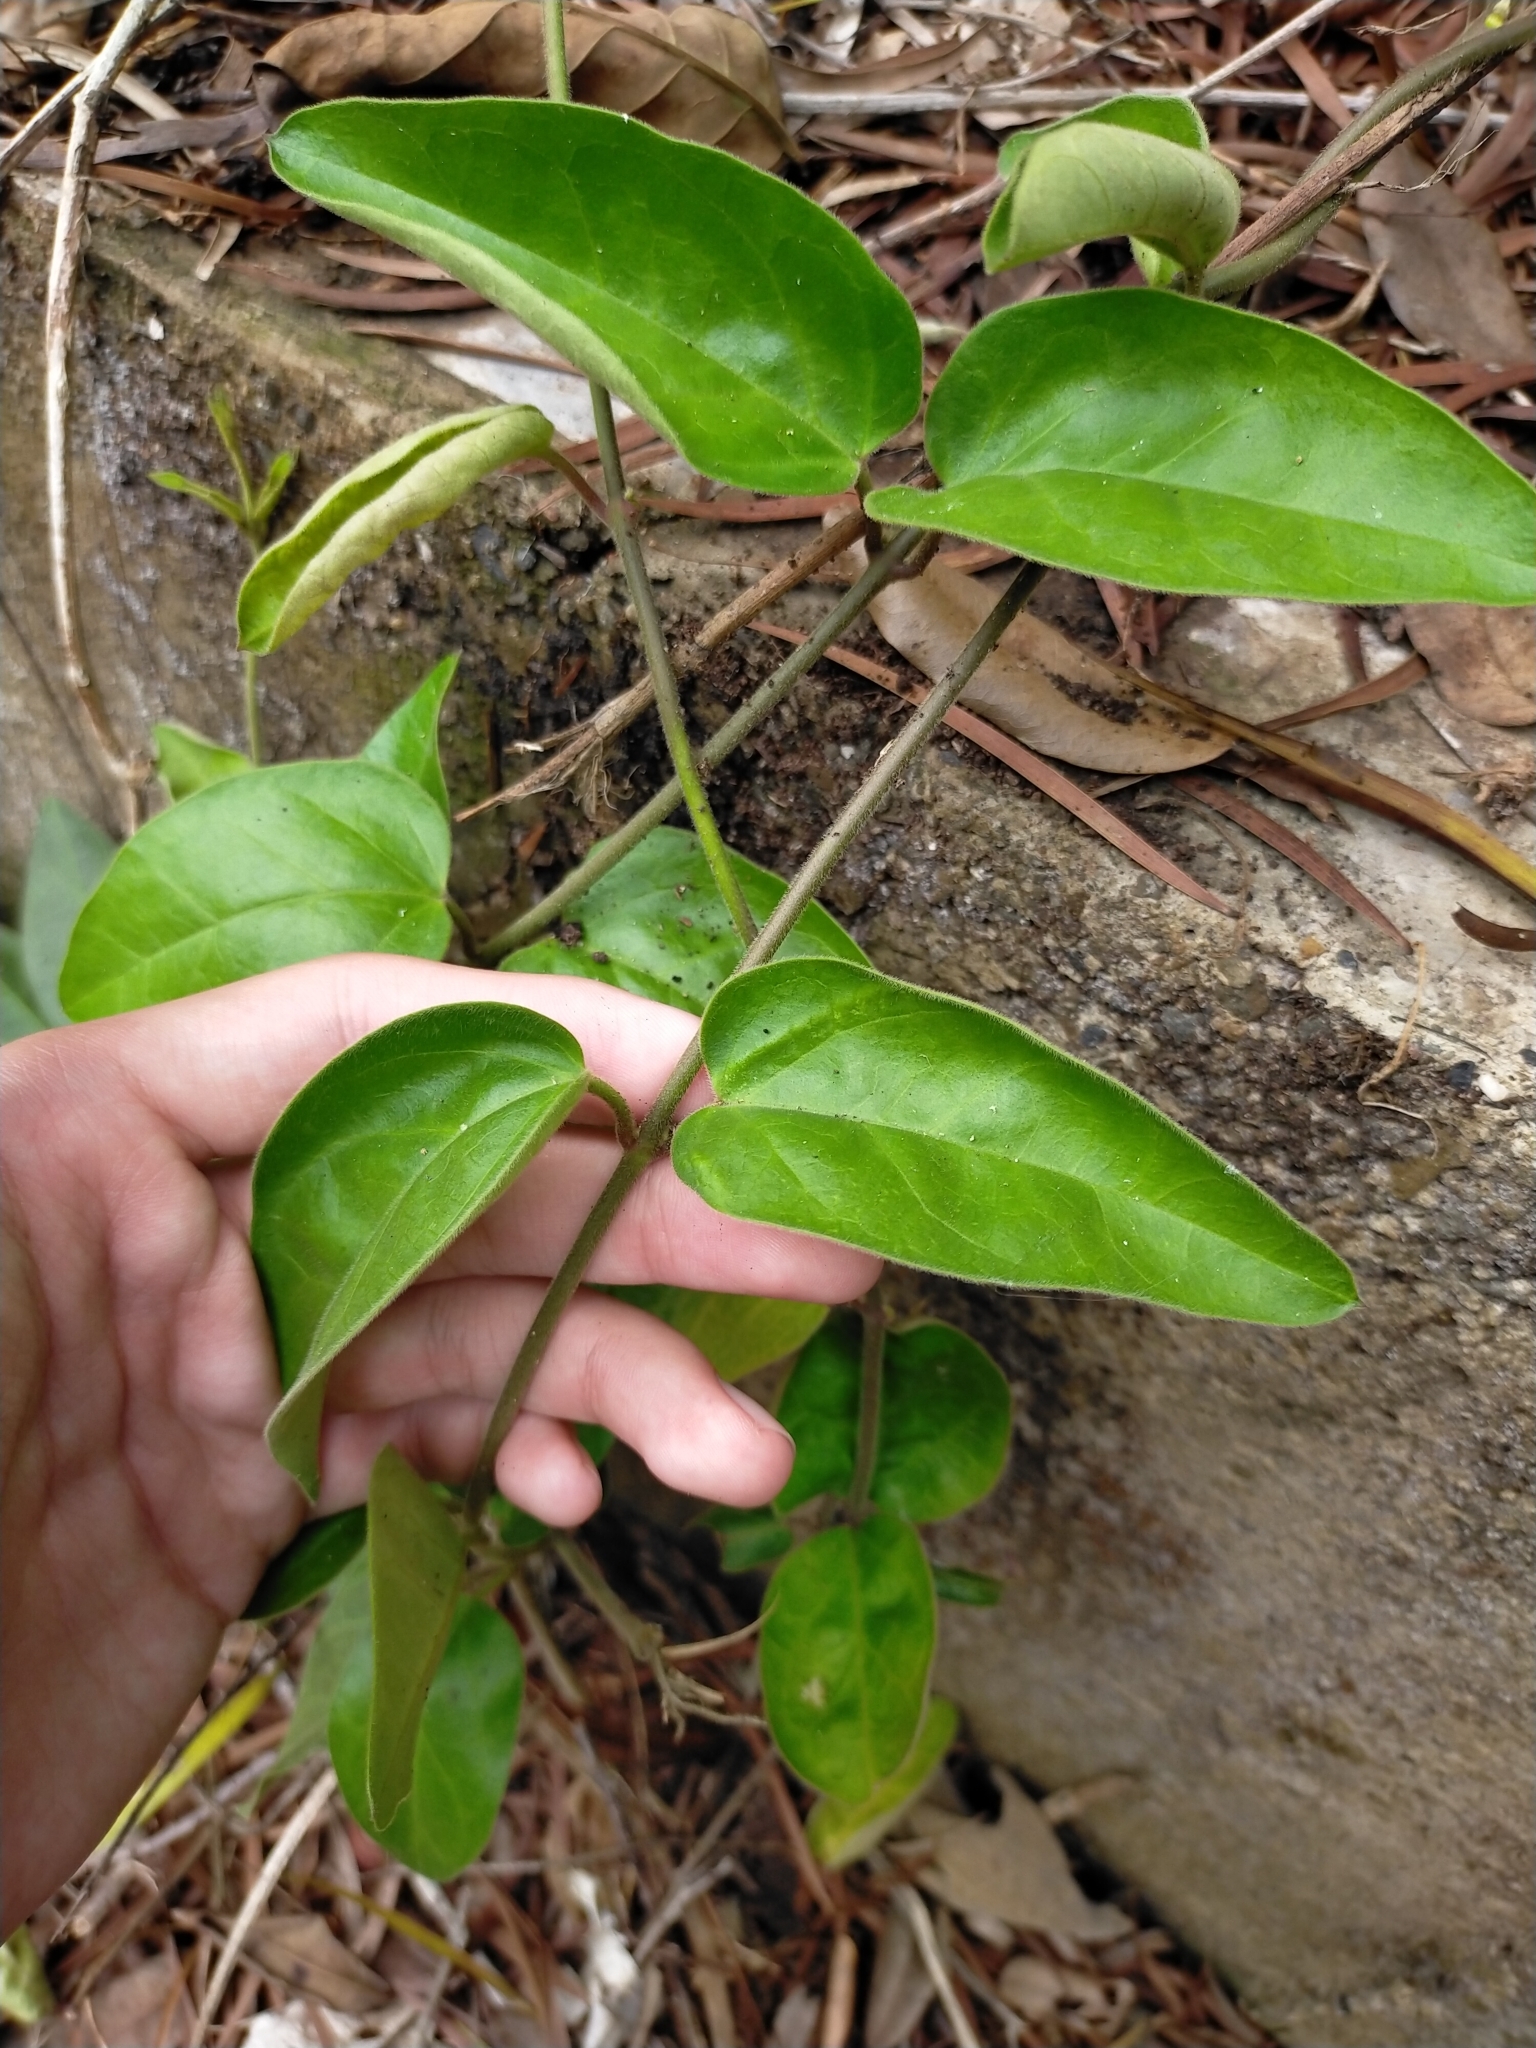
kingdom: Plantae
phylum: Tracheophyta
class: Magnoliopsida
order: Gentianales
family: Apocynaceae
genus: Vincetoxicum
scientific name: Vincetoxicum hirsutum
